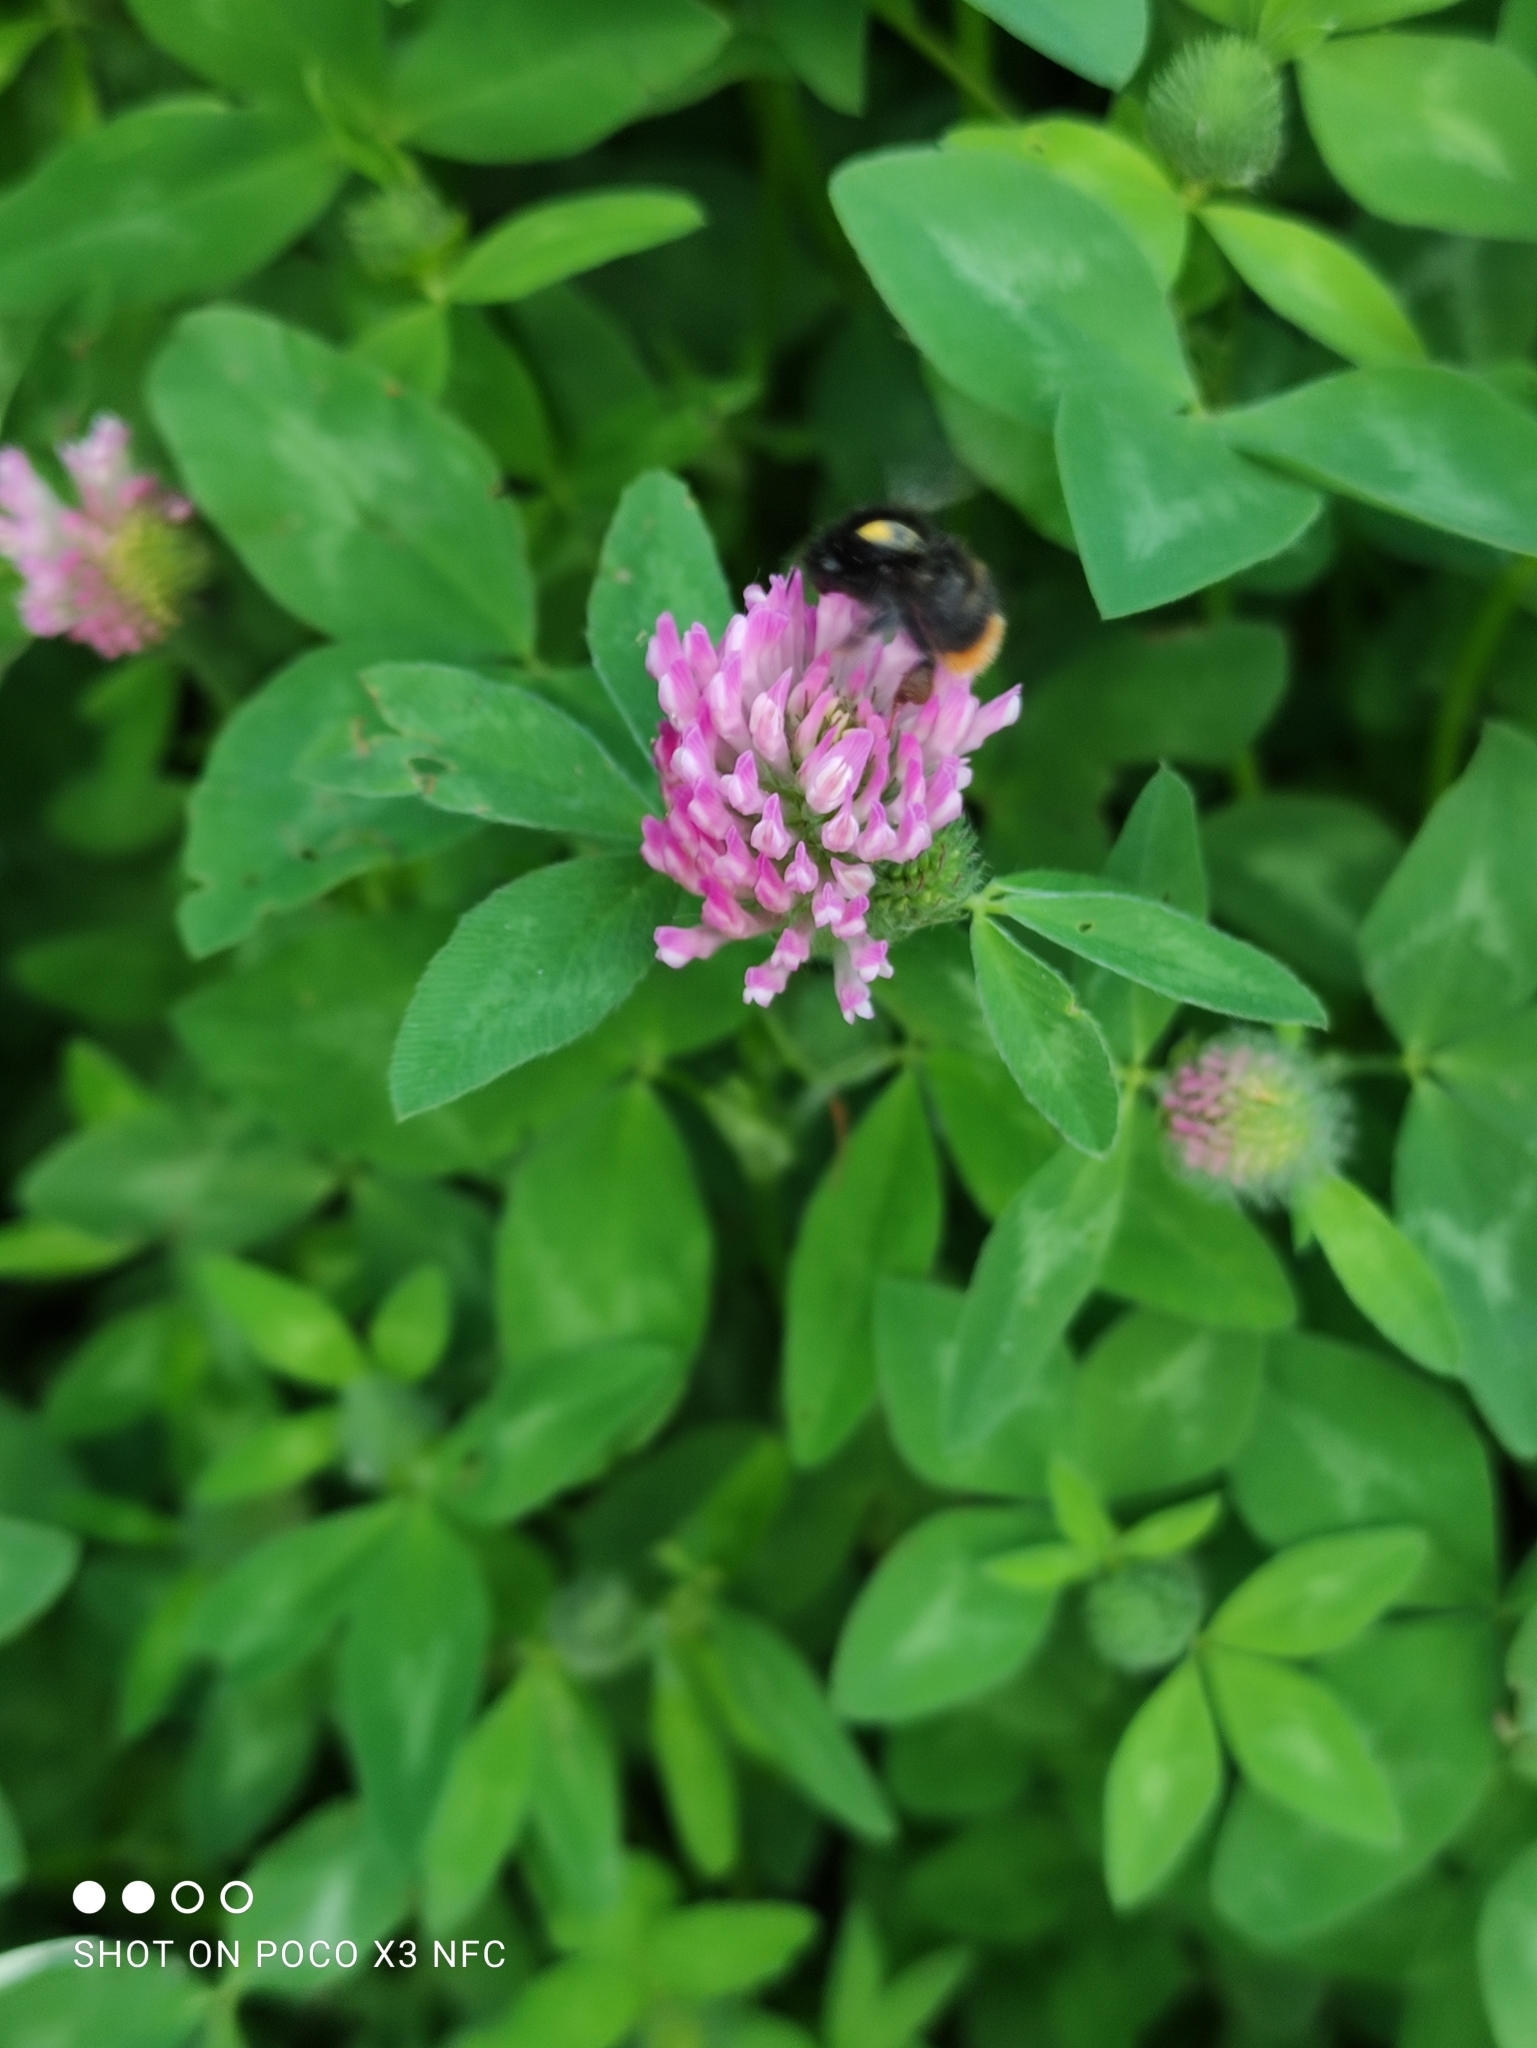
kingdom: Plantae
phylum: Tracheophyta
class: Magnoliopsida
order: Fabales
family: Fabaceae
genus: Trifolium
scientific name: Trifolium pratense
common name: Red clover
